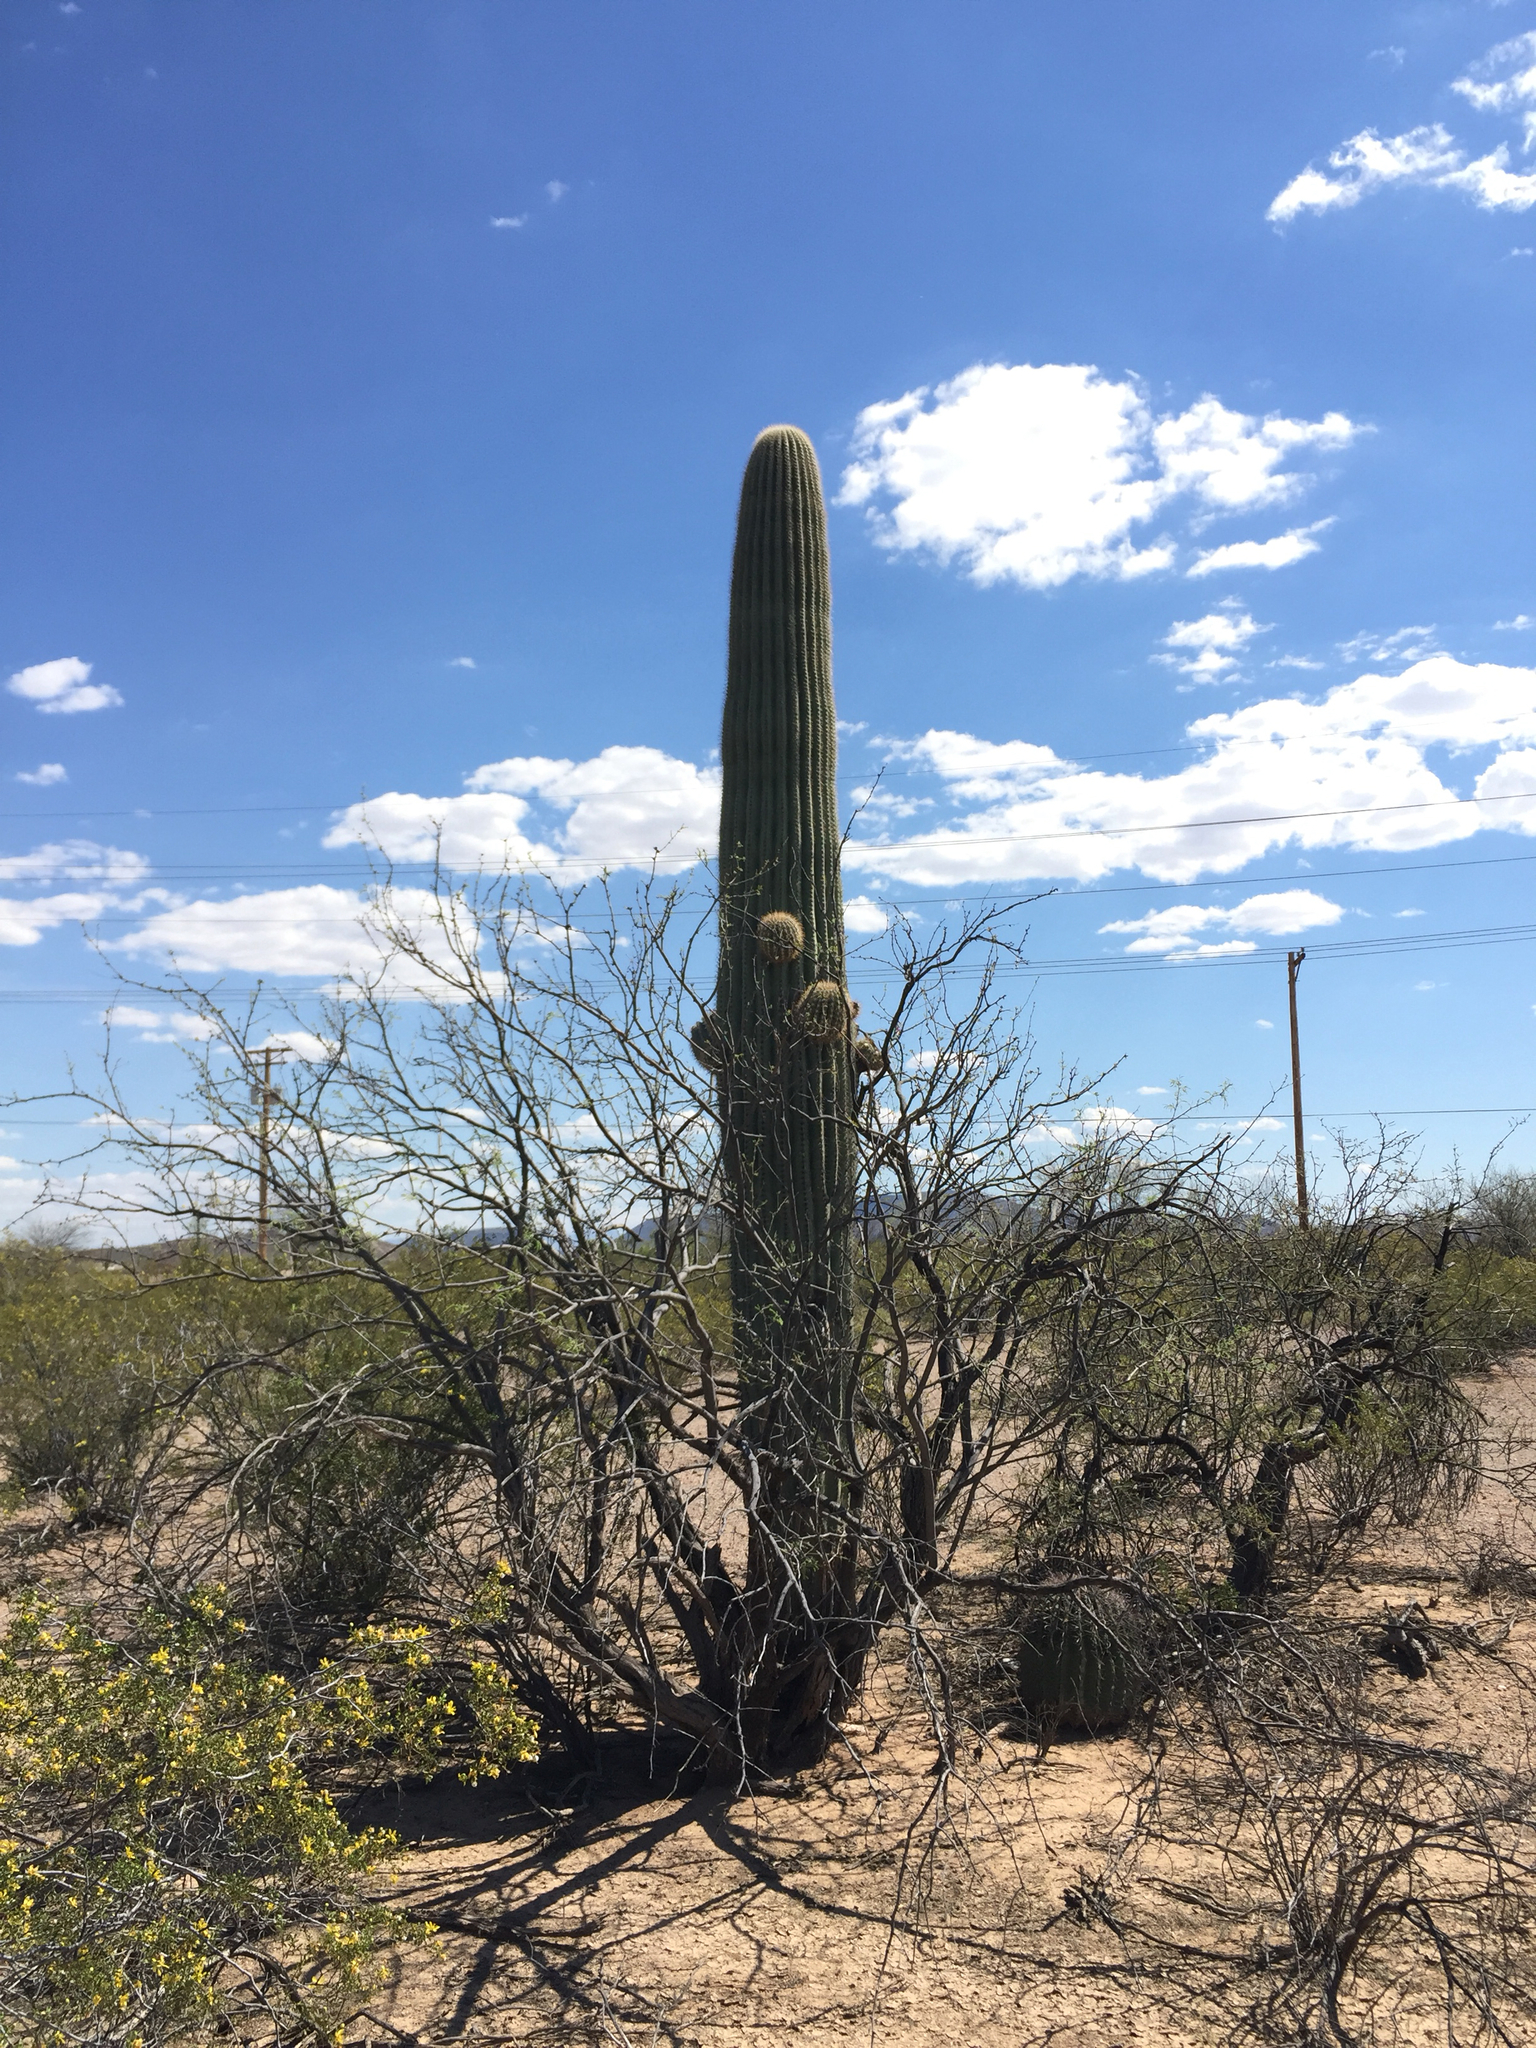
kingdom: Plantae
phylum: Tracheophyta
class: Magnoliopsida
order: Caryophyllales
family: Cactaceae
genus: Carnegiea
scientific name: Carnegiea gigantea
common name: Saguaro
